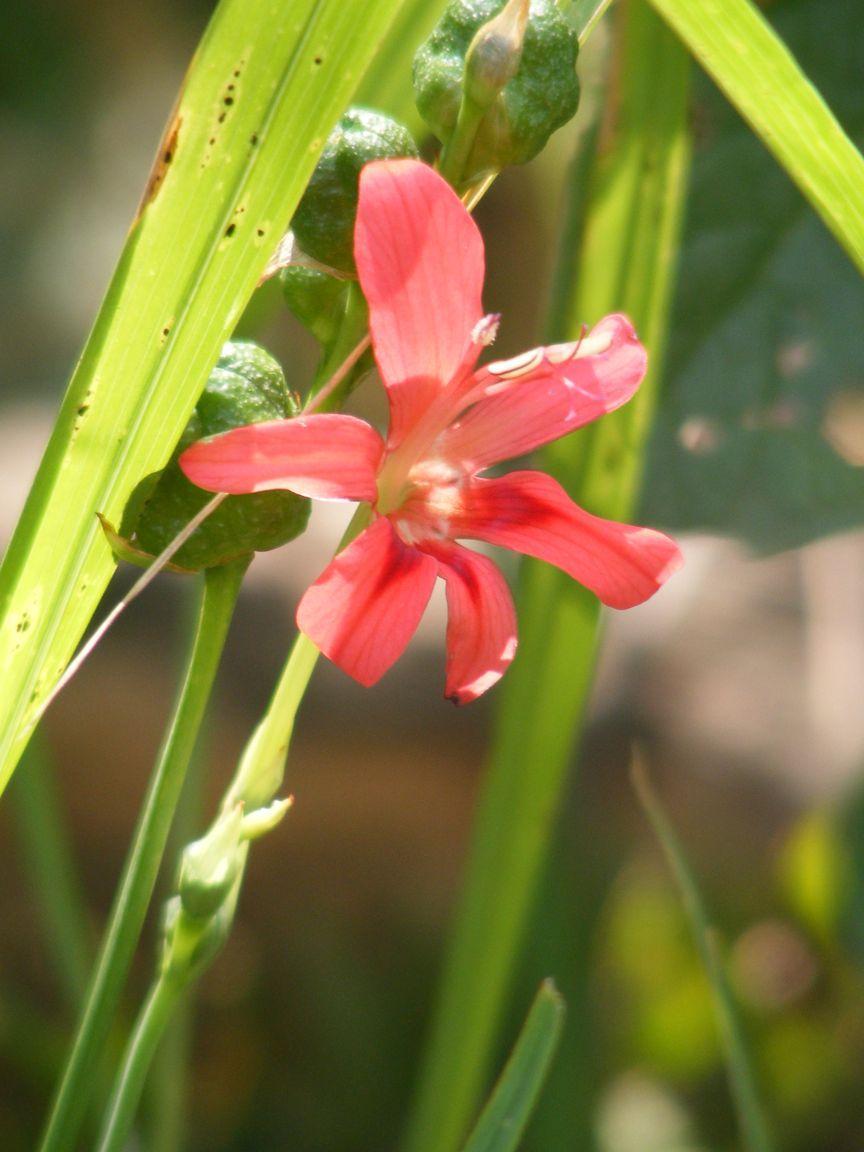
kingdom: Plantae
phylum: Tracheophyta
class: Liliopsida
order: Asparagales
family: Iridaceae
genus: Freesia
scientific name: Freesia grandiflora
